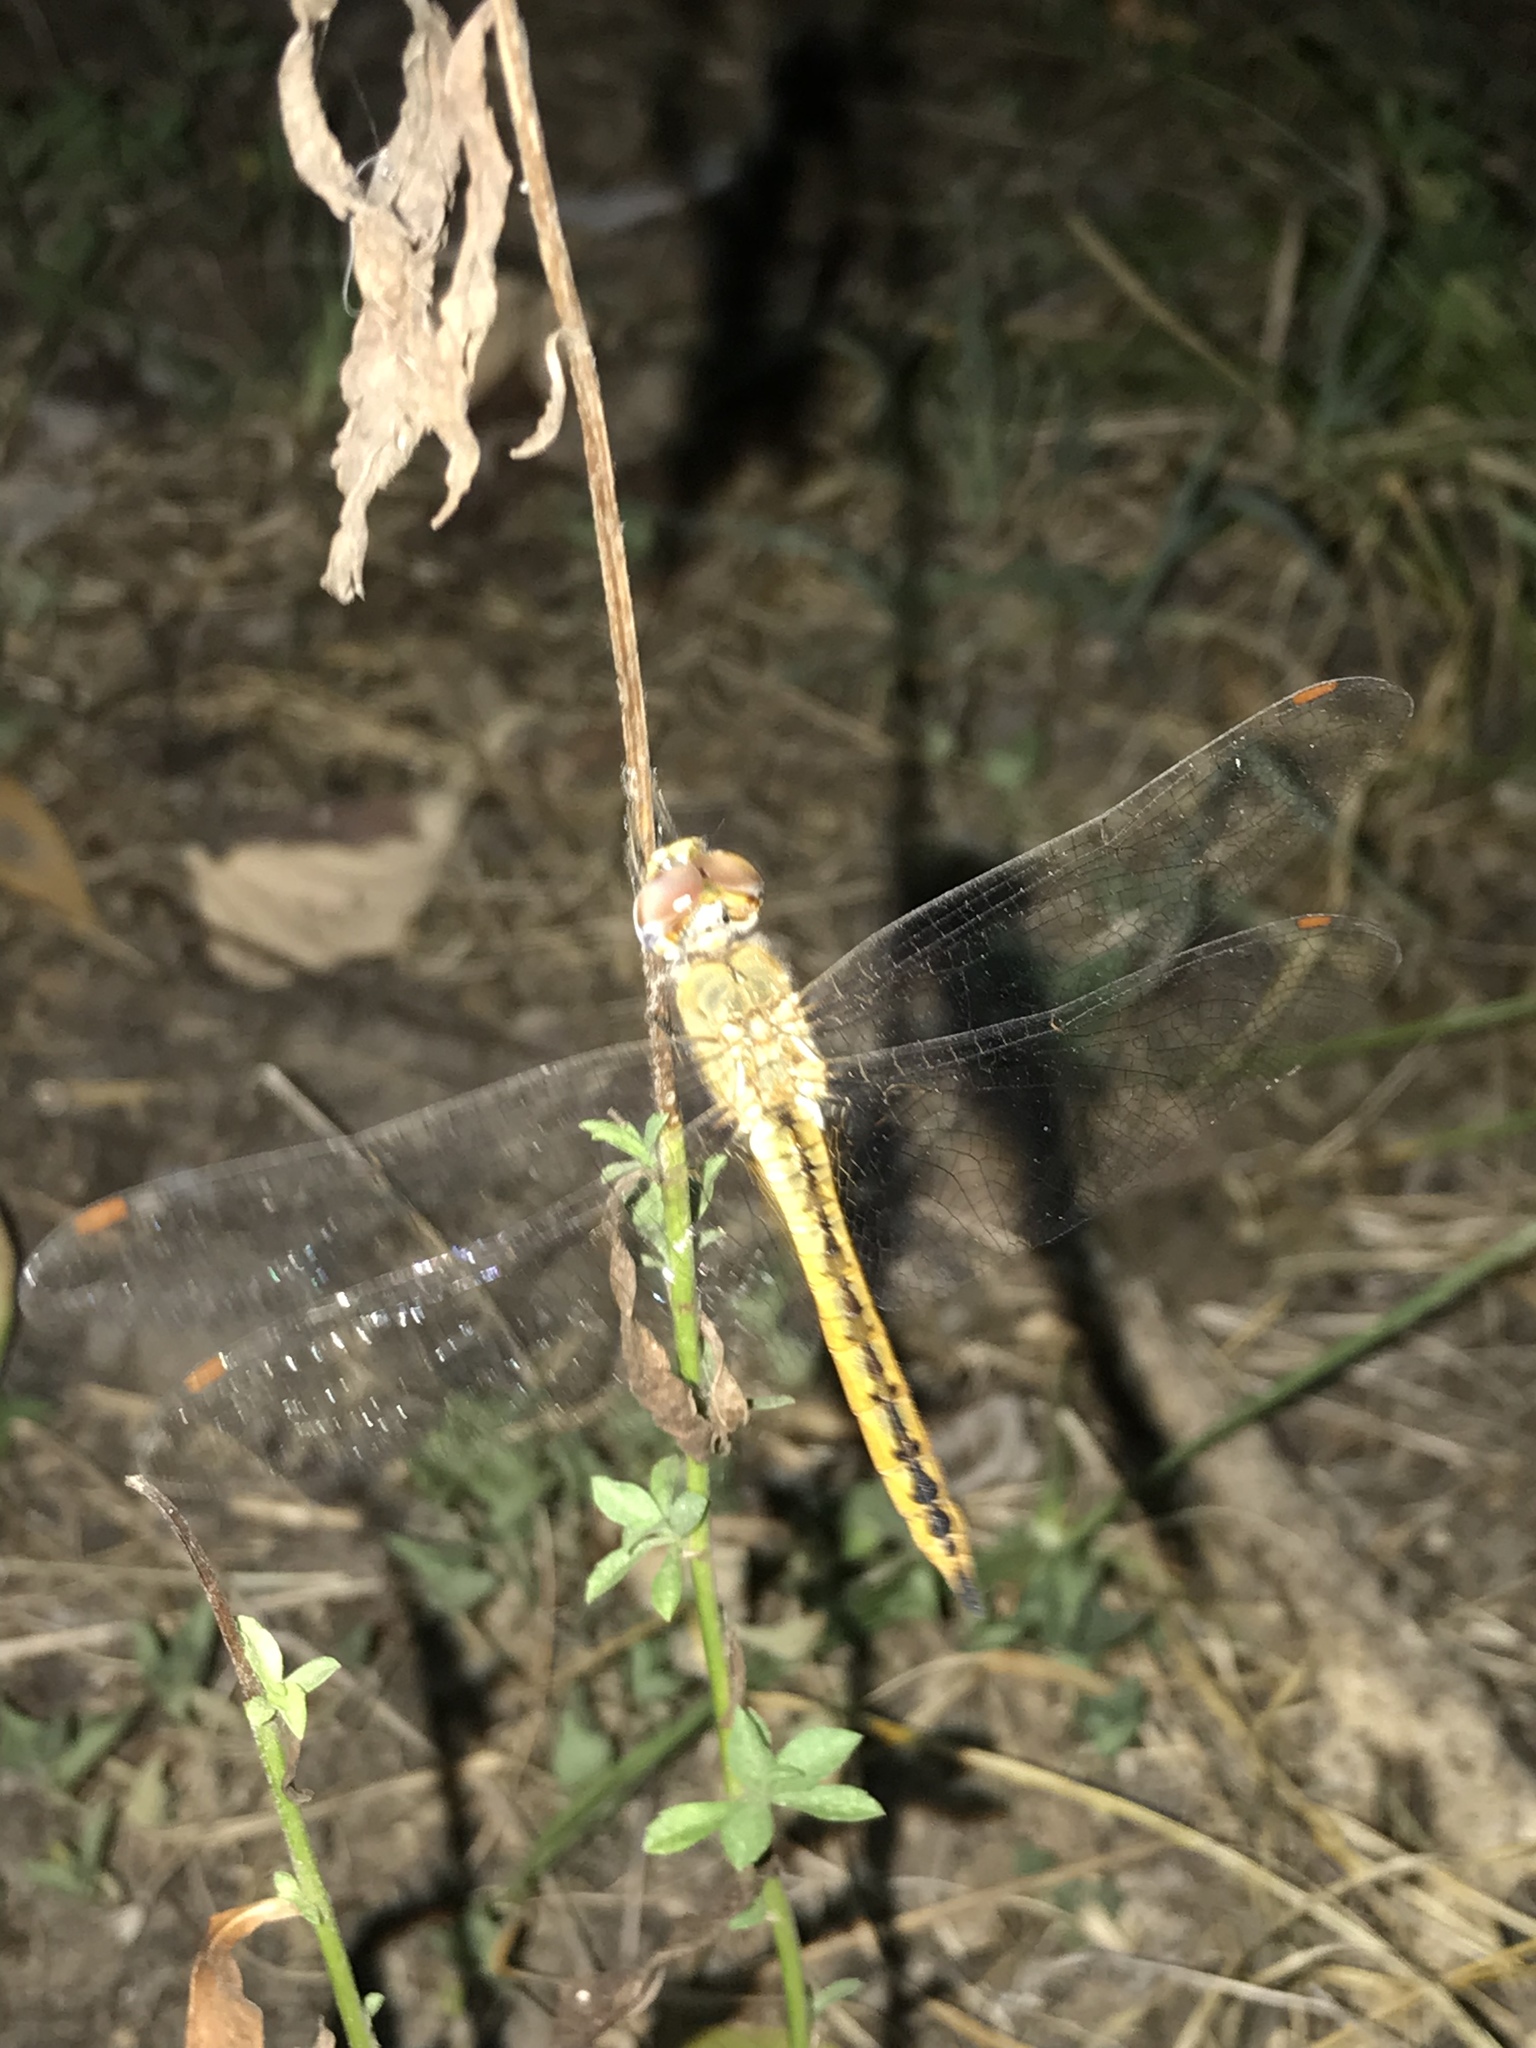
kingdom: Animalia
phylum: Arthropoda
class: Insecta
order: Odonata
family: Libellulidae
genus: Pantala
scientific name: Pantala flavescens
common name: Wandering glider
